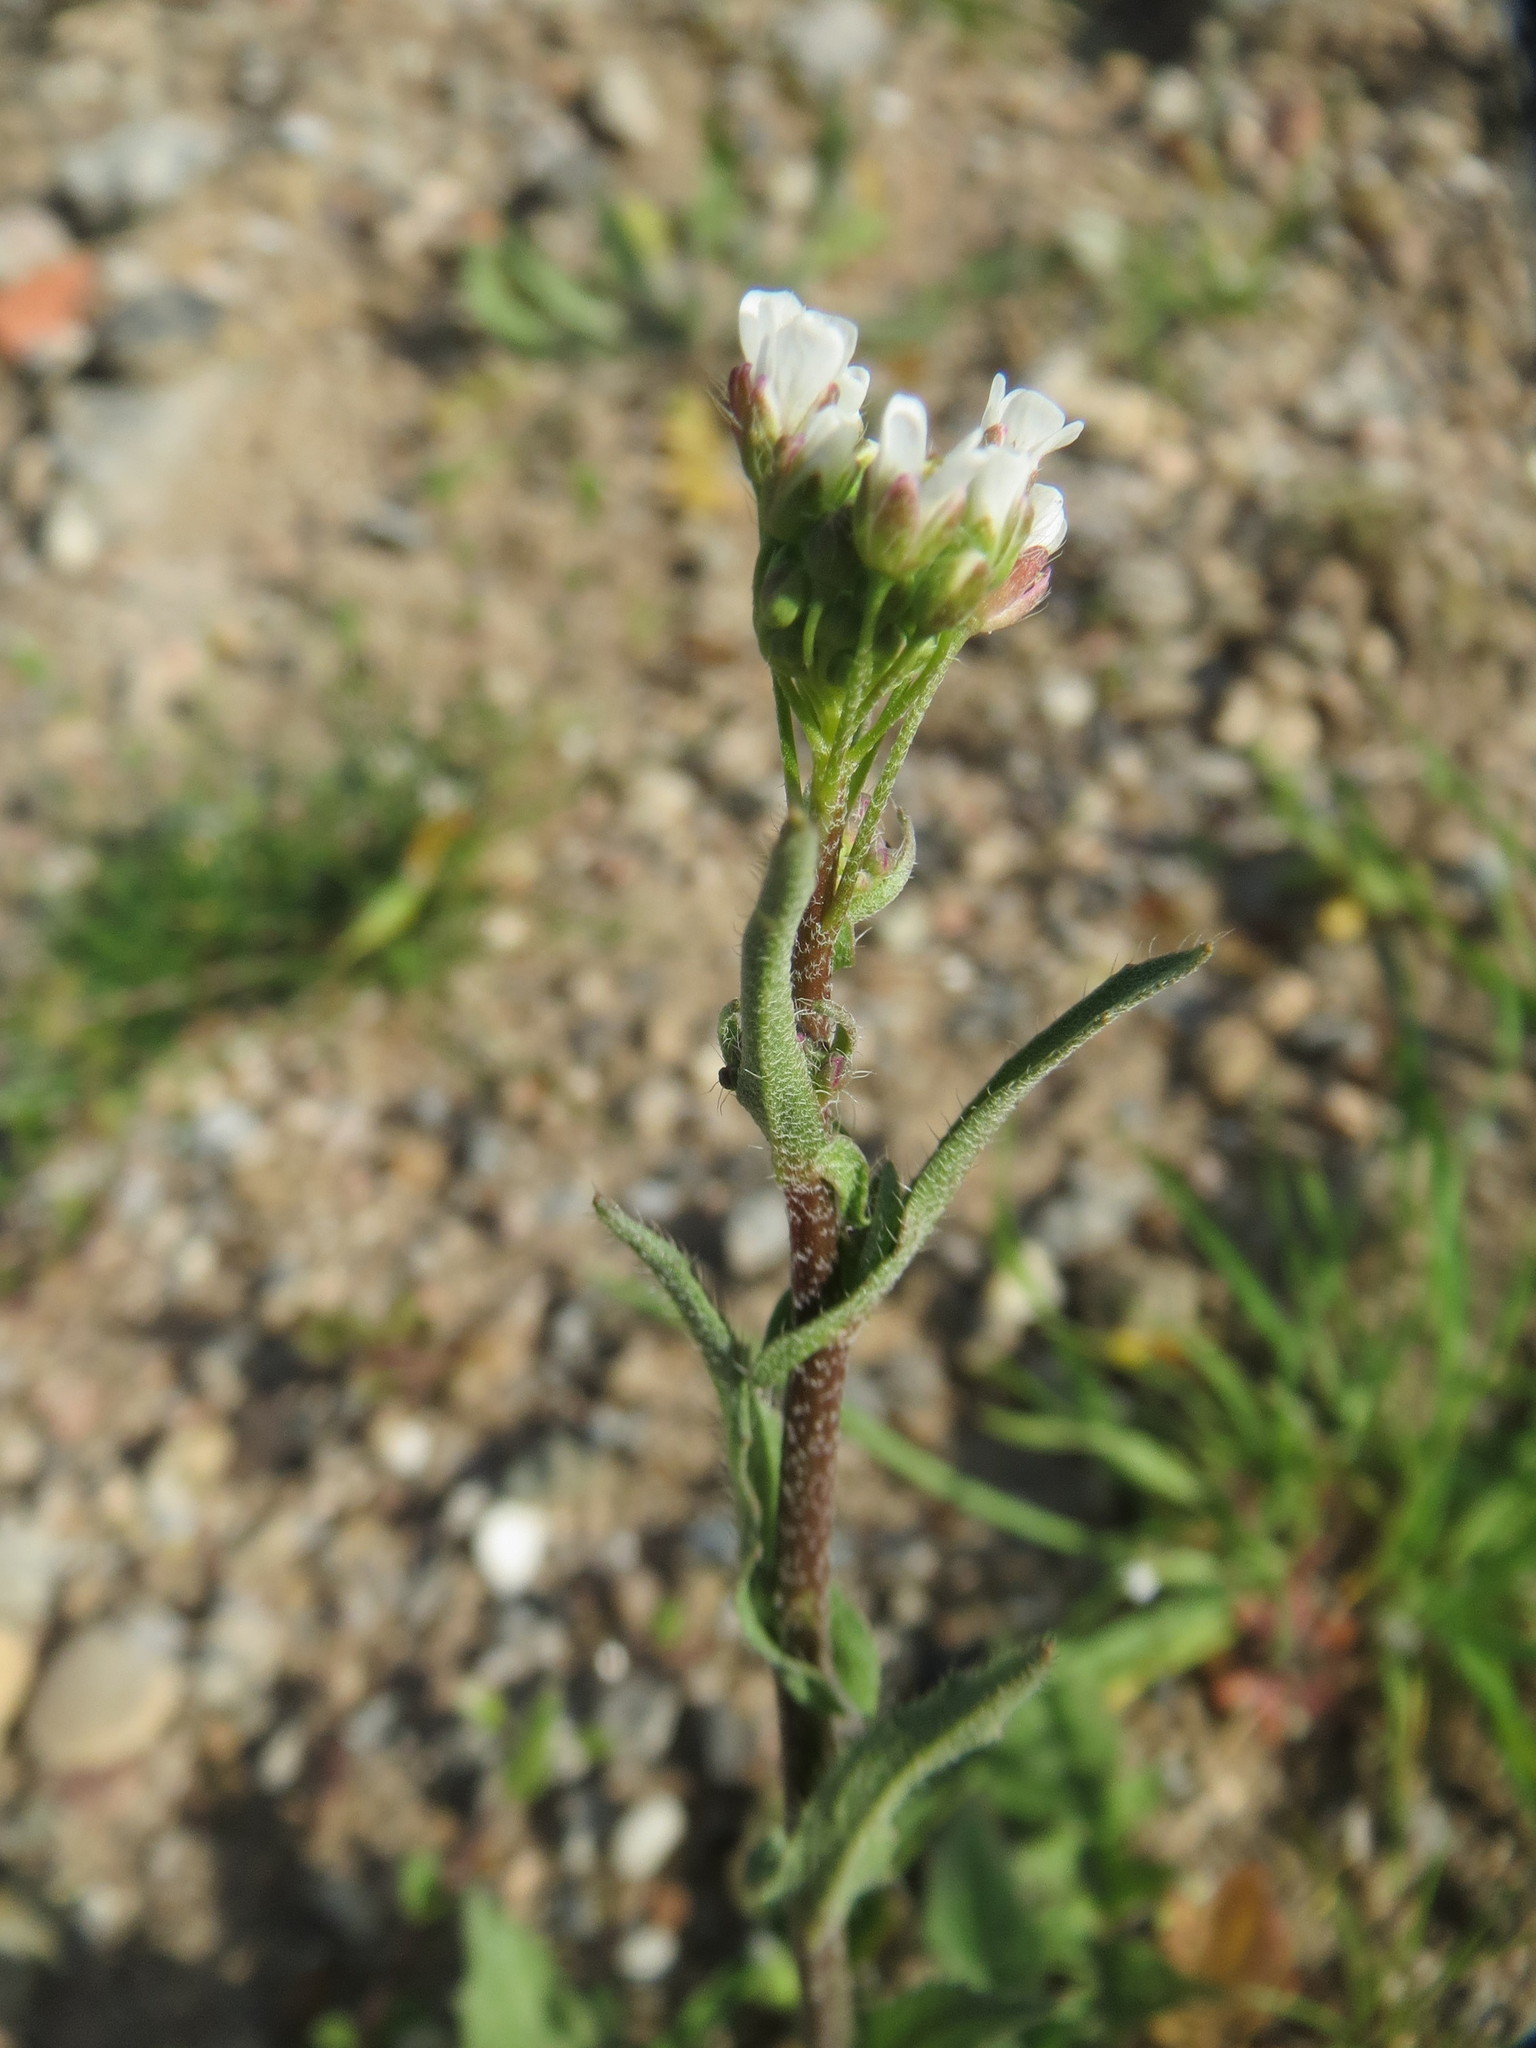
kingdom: Plantae
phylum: Tracheophyta
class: Magnoliopsida
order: Brassicales
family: Brassicaceae
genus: Arabis
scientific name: Arabis hirsuta
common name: Hairy rock-cress
